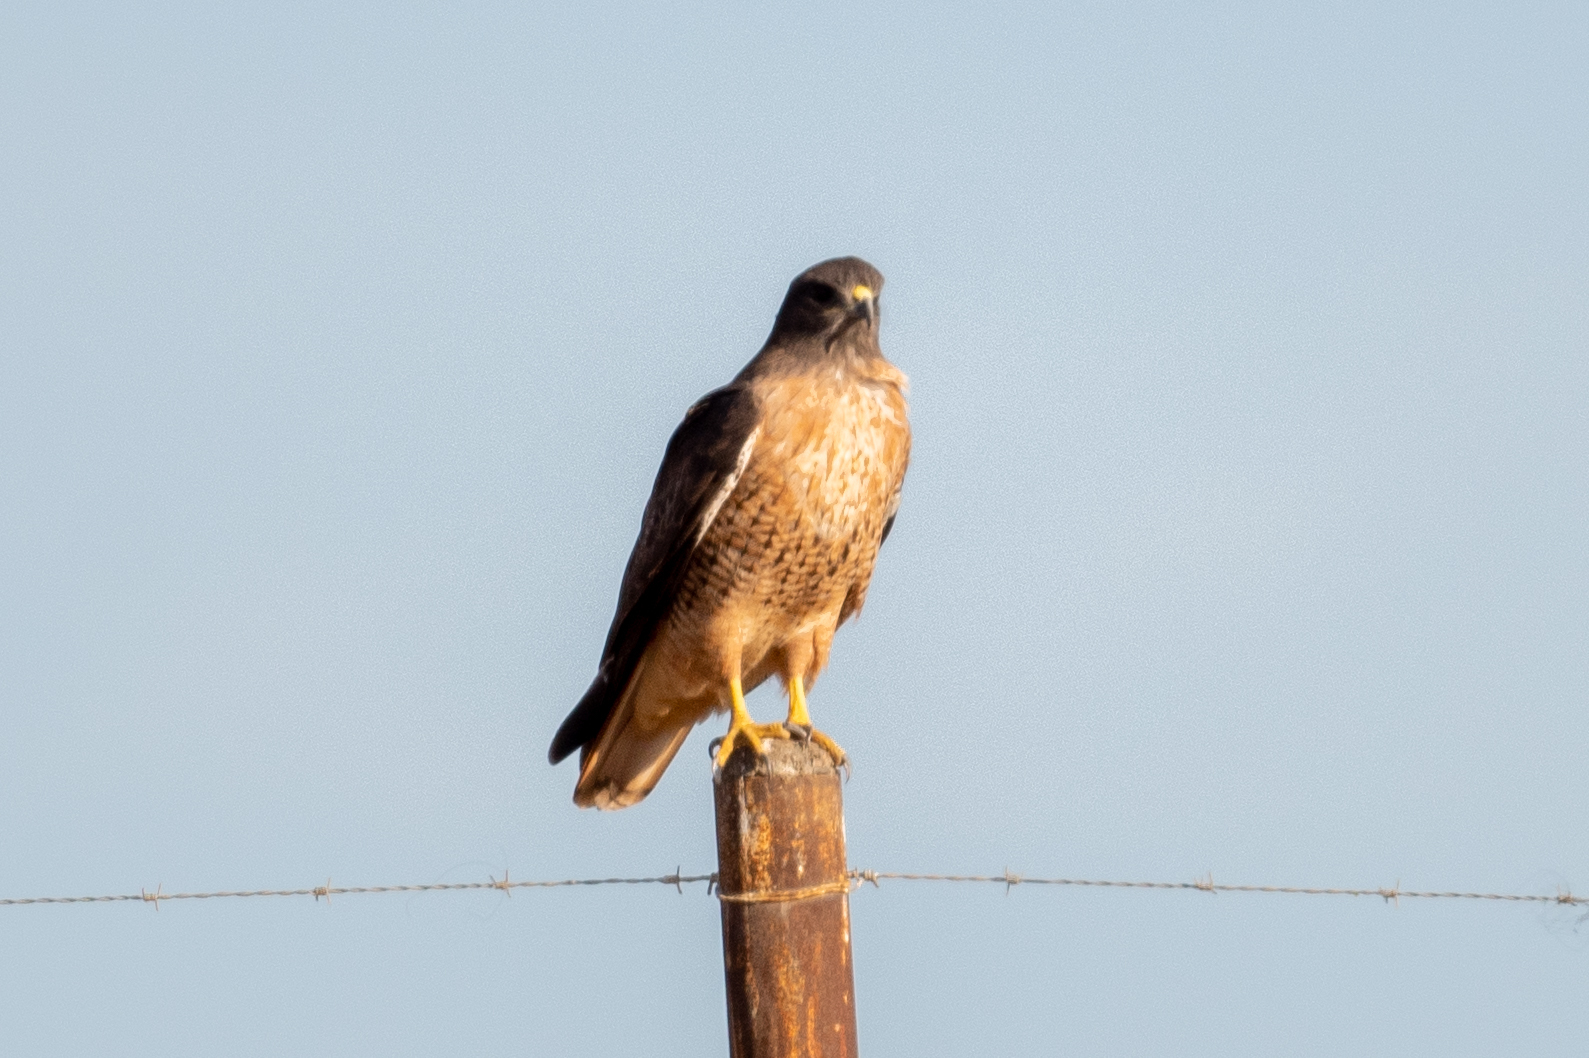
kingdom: Animalia
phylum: Chordata
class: Aves
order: Accipitriformes
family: Accipitridae
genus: Buteo
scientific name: Buteo jamaicensis
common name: Red-tailed hawk
